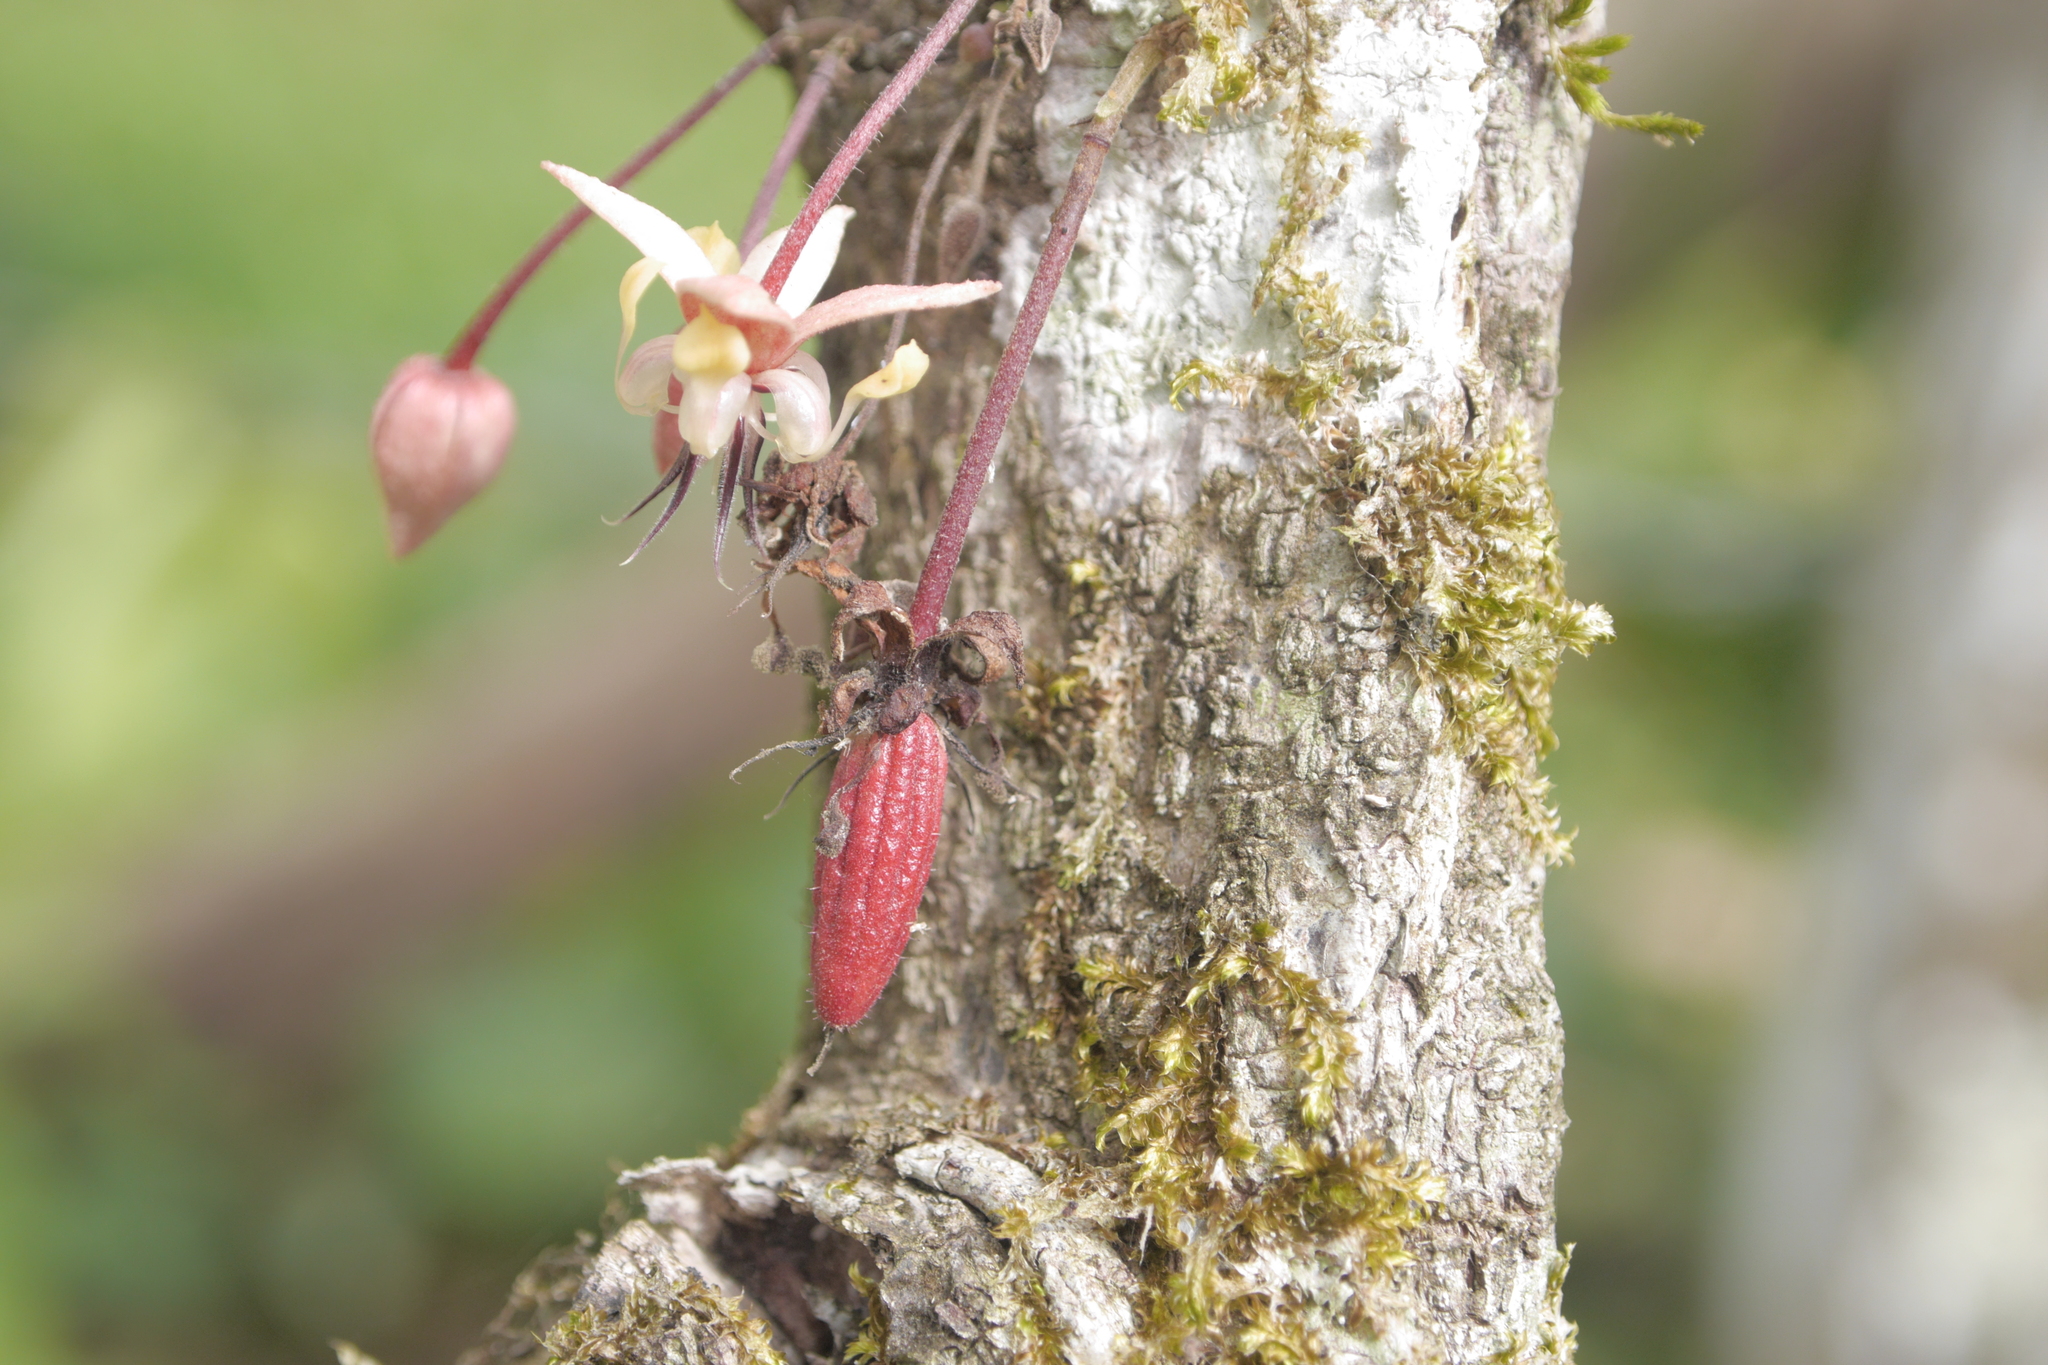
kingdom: Plantae
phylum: Tracheophyta
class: Magnoliopsida
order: Malvales
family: Malvaceae
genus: Theobroma
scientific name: Theobroma cacao
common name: Cocoa
